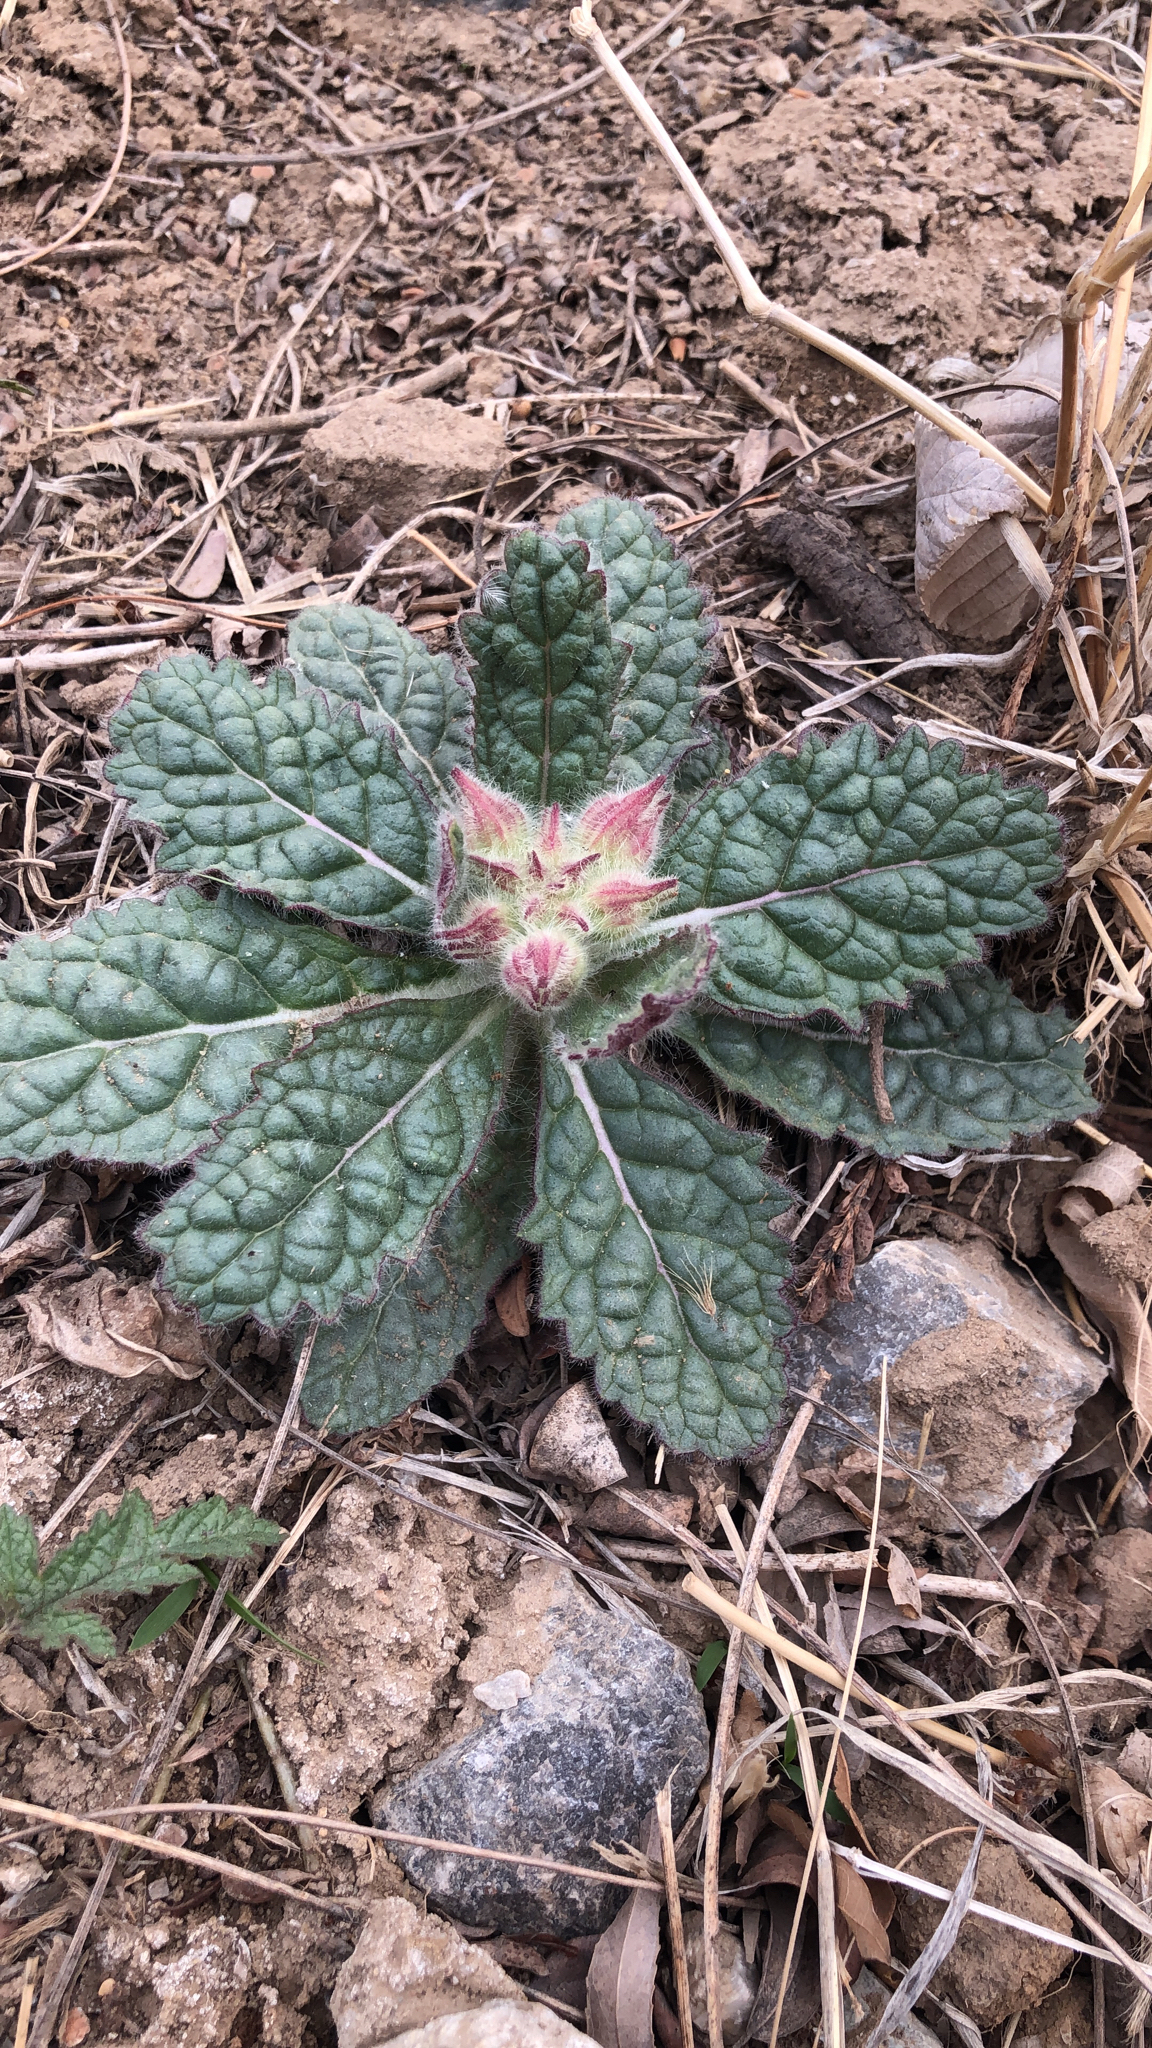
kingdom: Plantae
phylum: Tracheophyta
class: Magnoliopsida
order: Lamiales
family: Rehmanniaceae
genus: Rehmannia
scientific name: Rehmannia glutinosa
